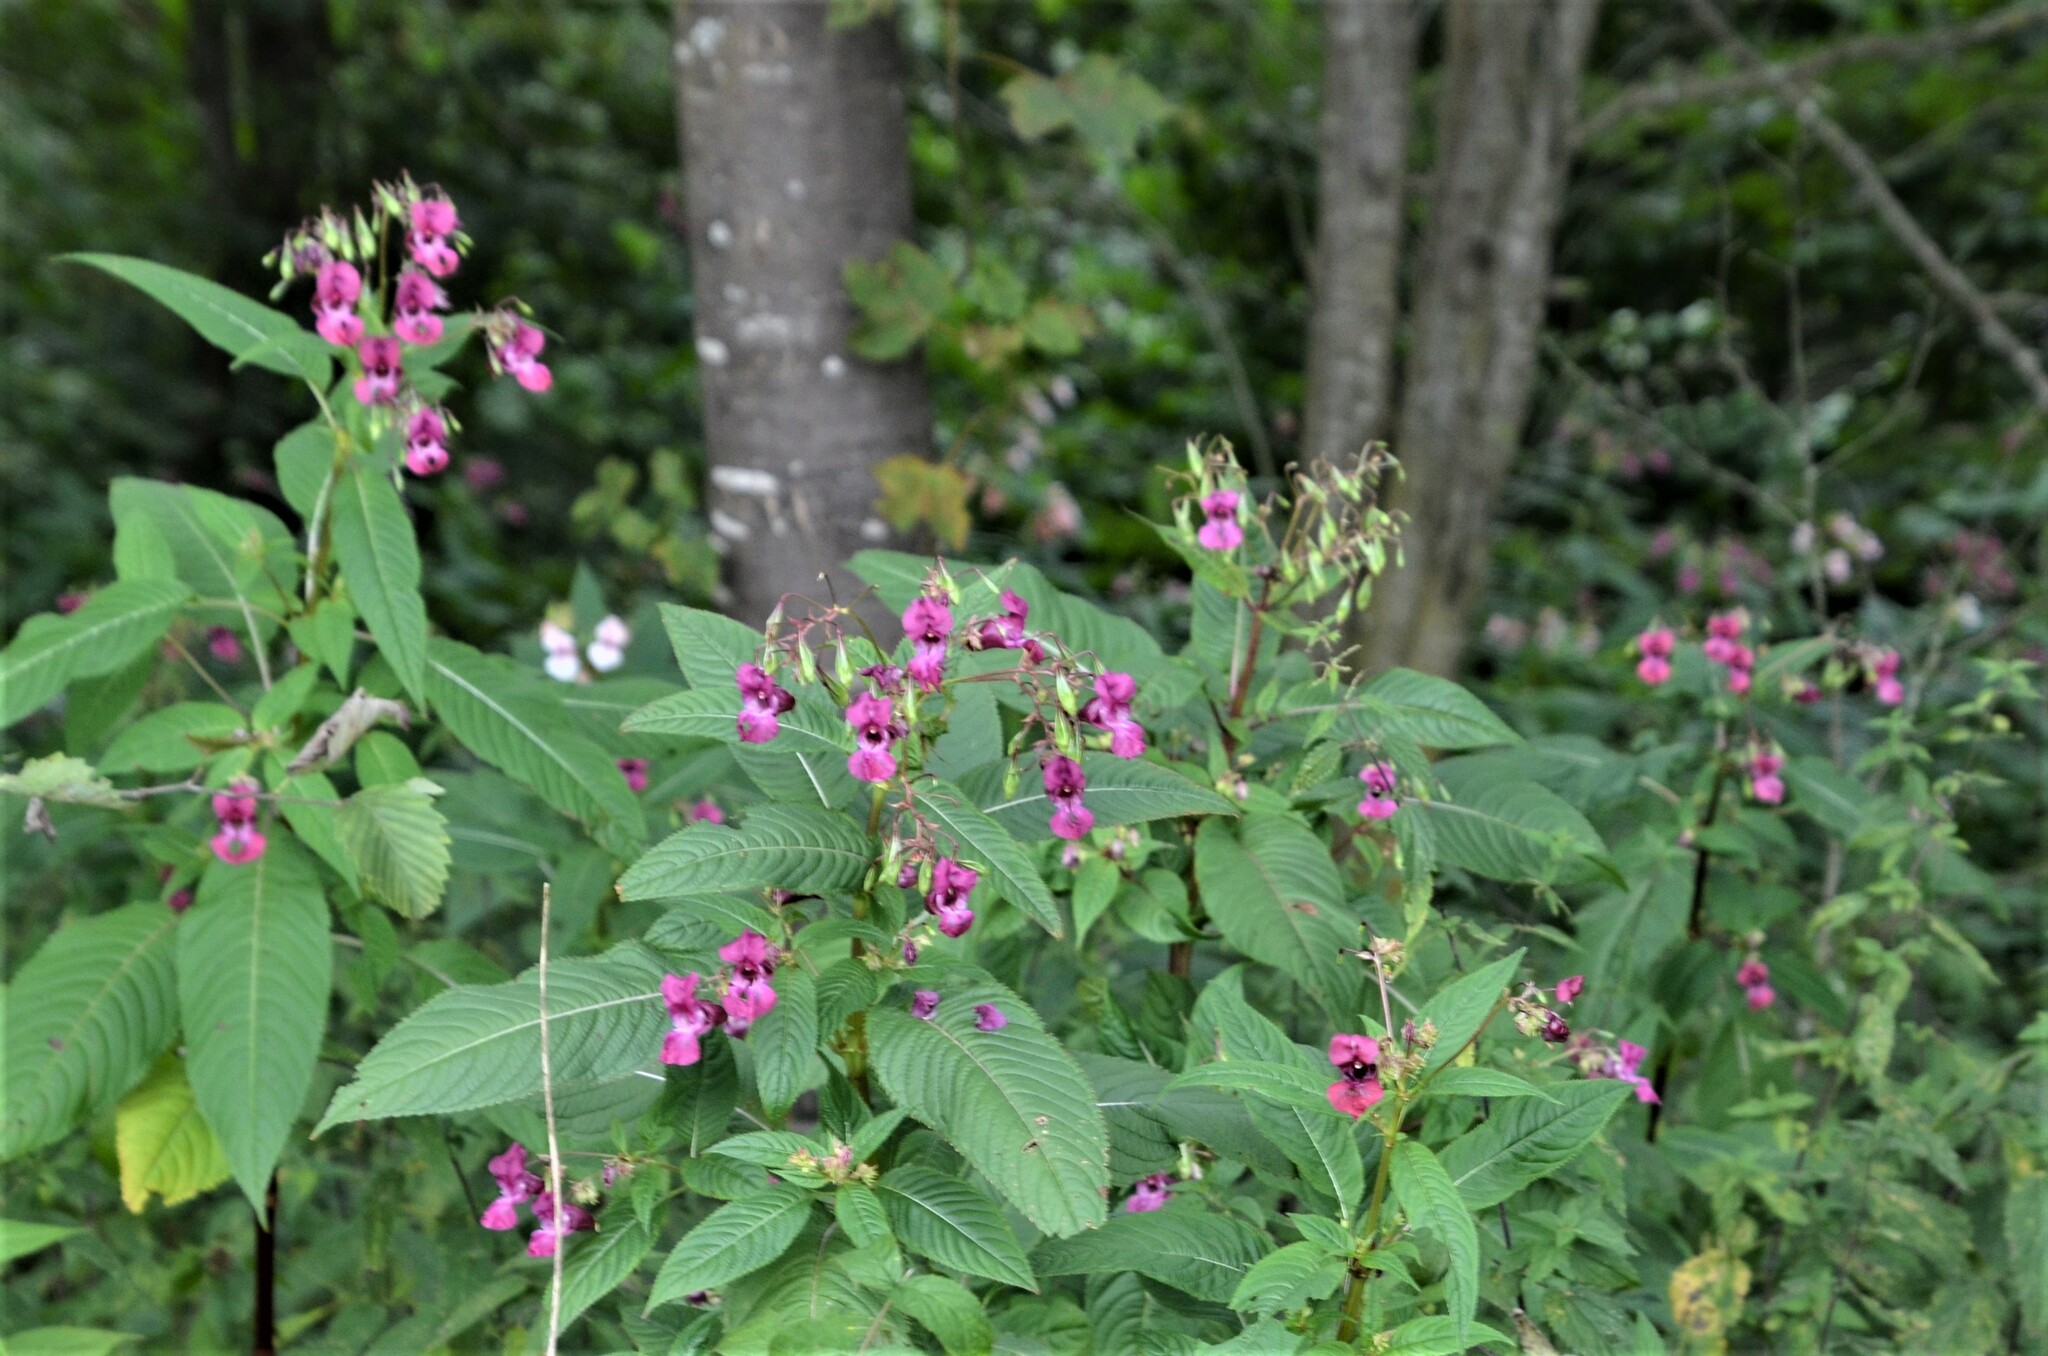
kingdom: Plantae
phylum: Tracheophyta
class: Magnoliopsida
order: Ericales
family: Balsaminaceae
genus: Impatiens
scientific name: Impatiens glandulifera
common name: Himalayan balsam
